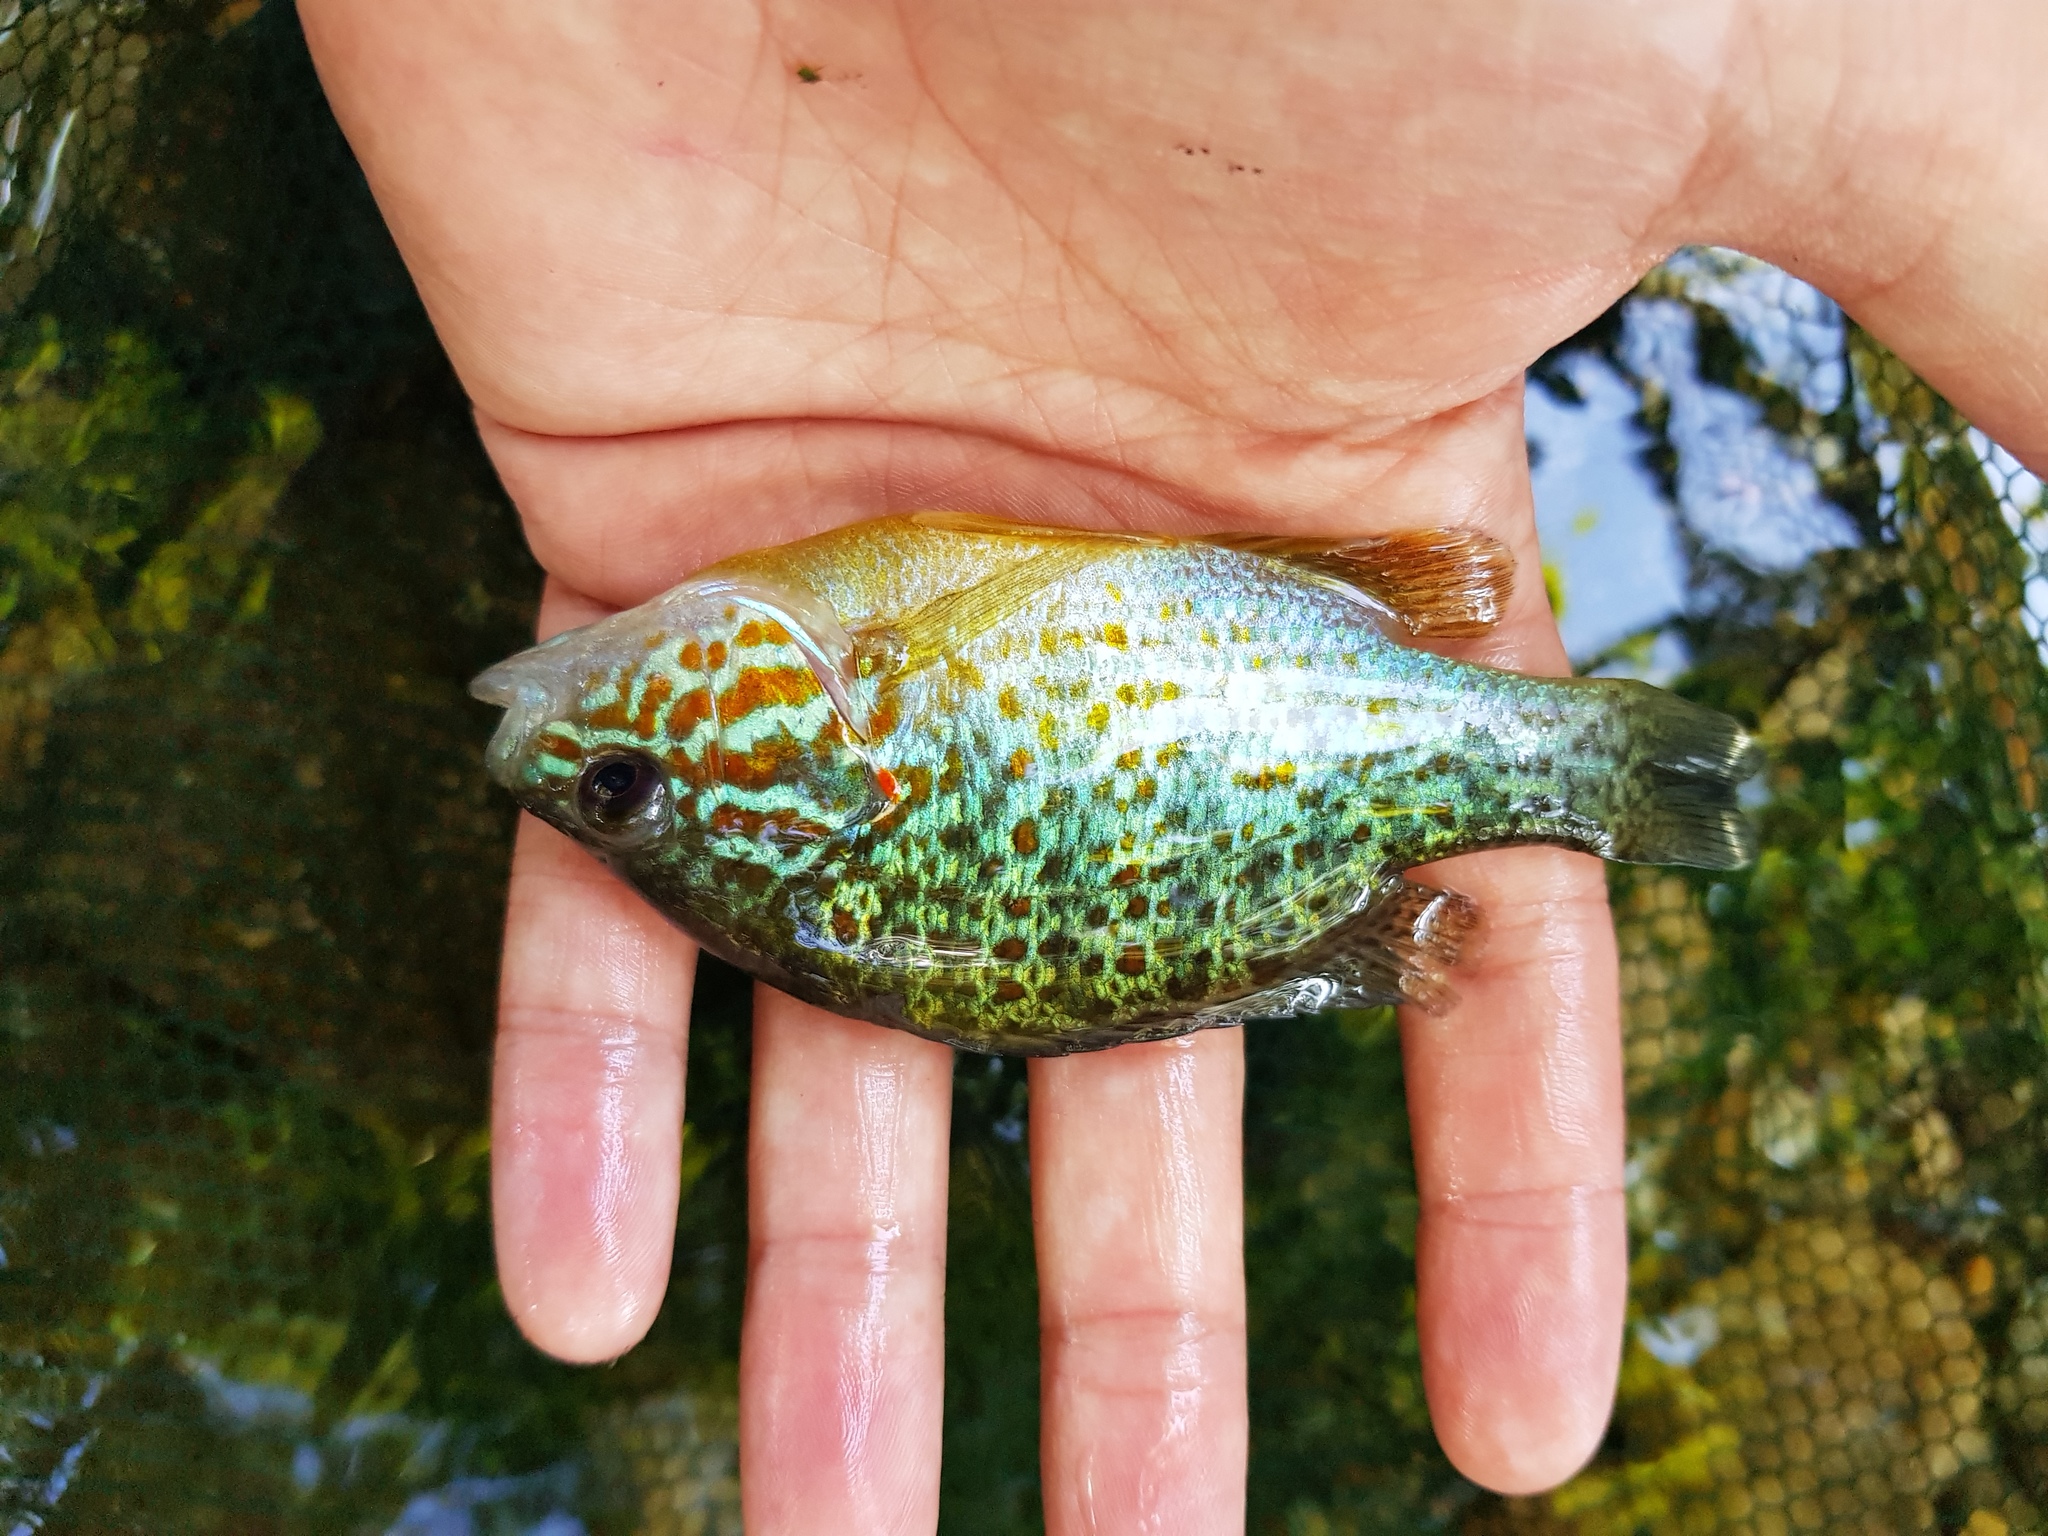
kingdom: Animalia
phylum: Chordata
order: Perciformes
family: Centrarchidae
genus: Lepomis
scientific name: Lepomis gibbosus
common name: Pumpkinseed
